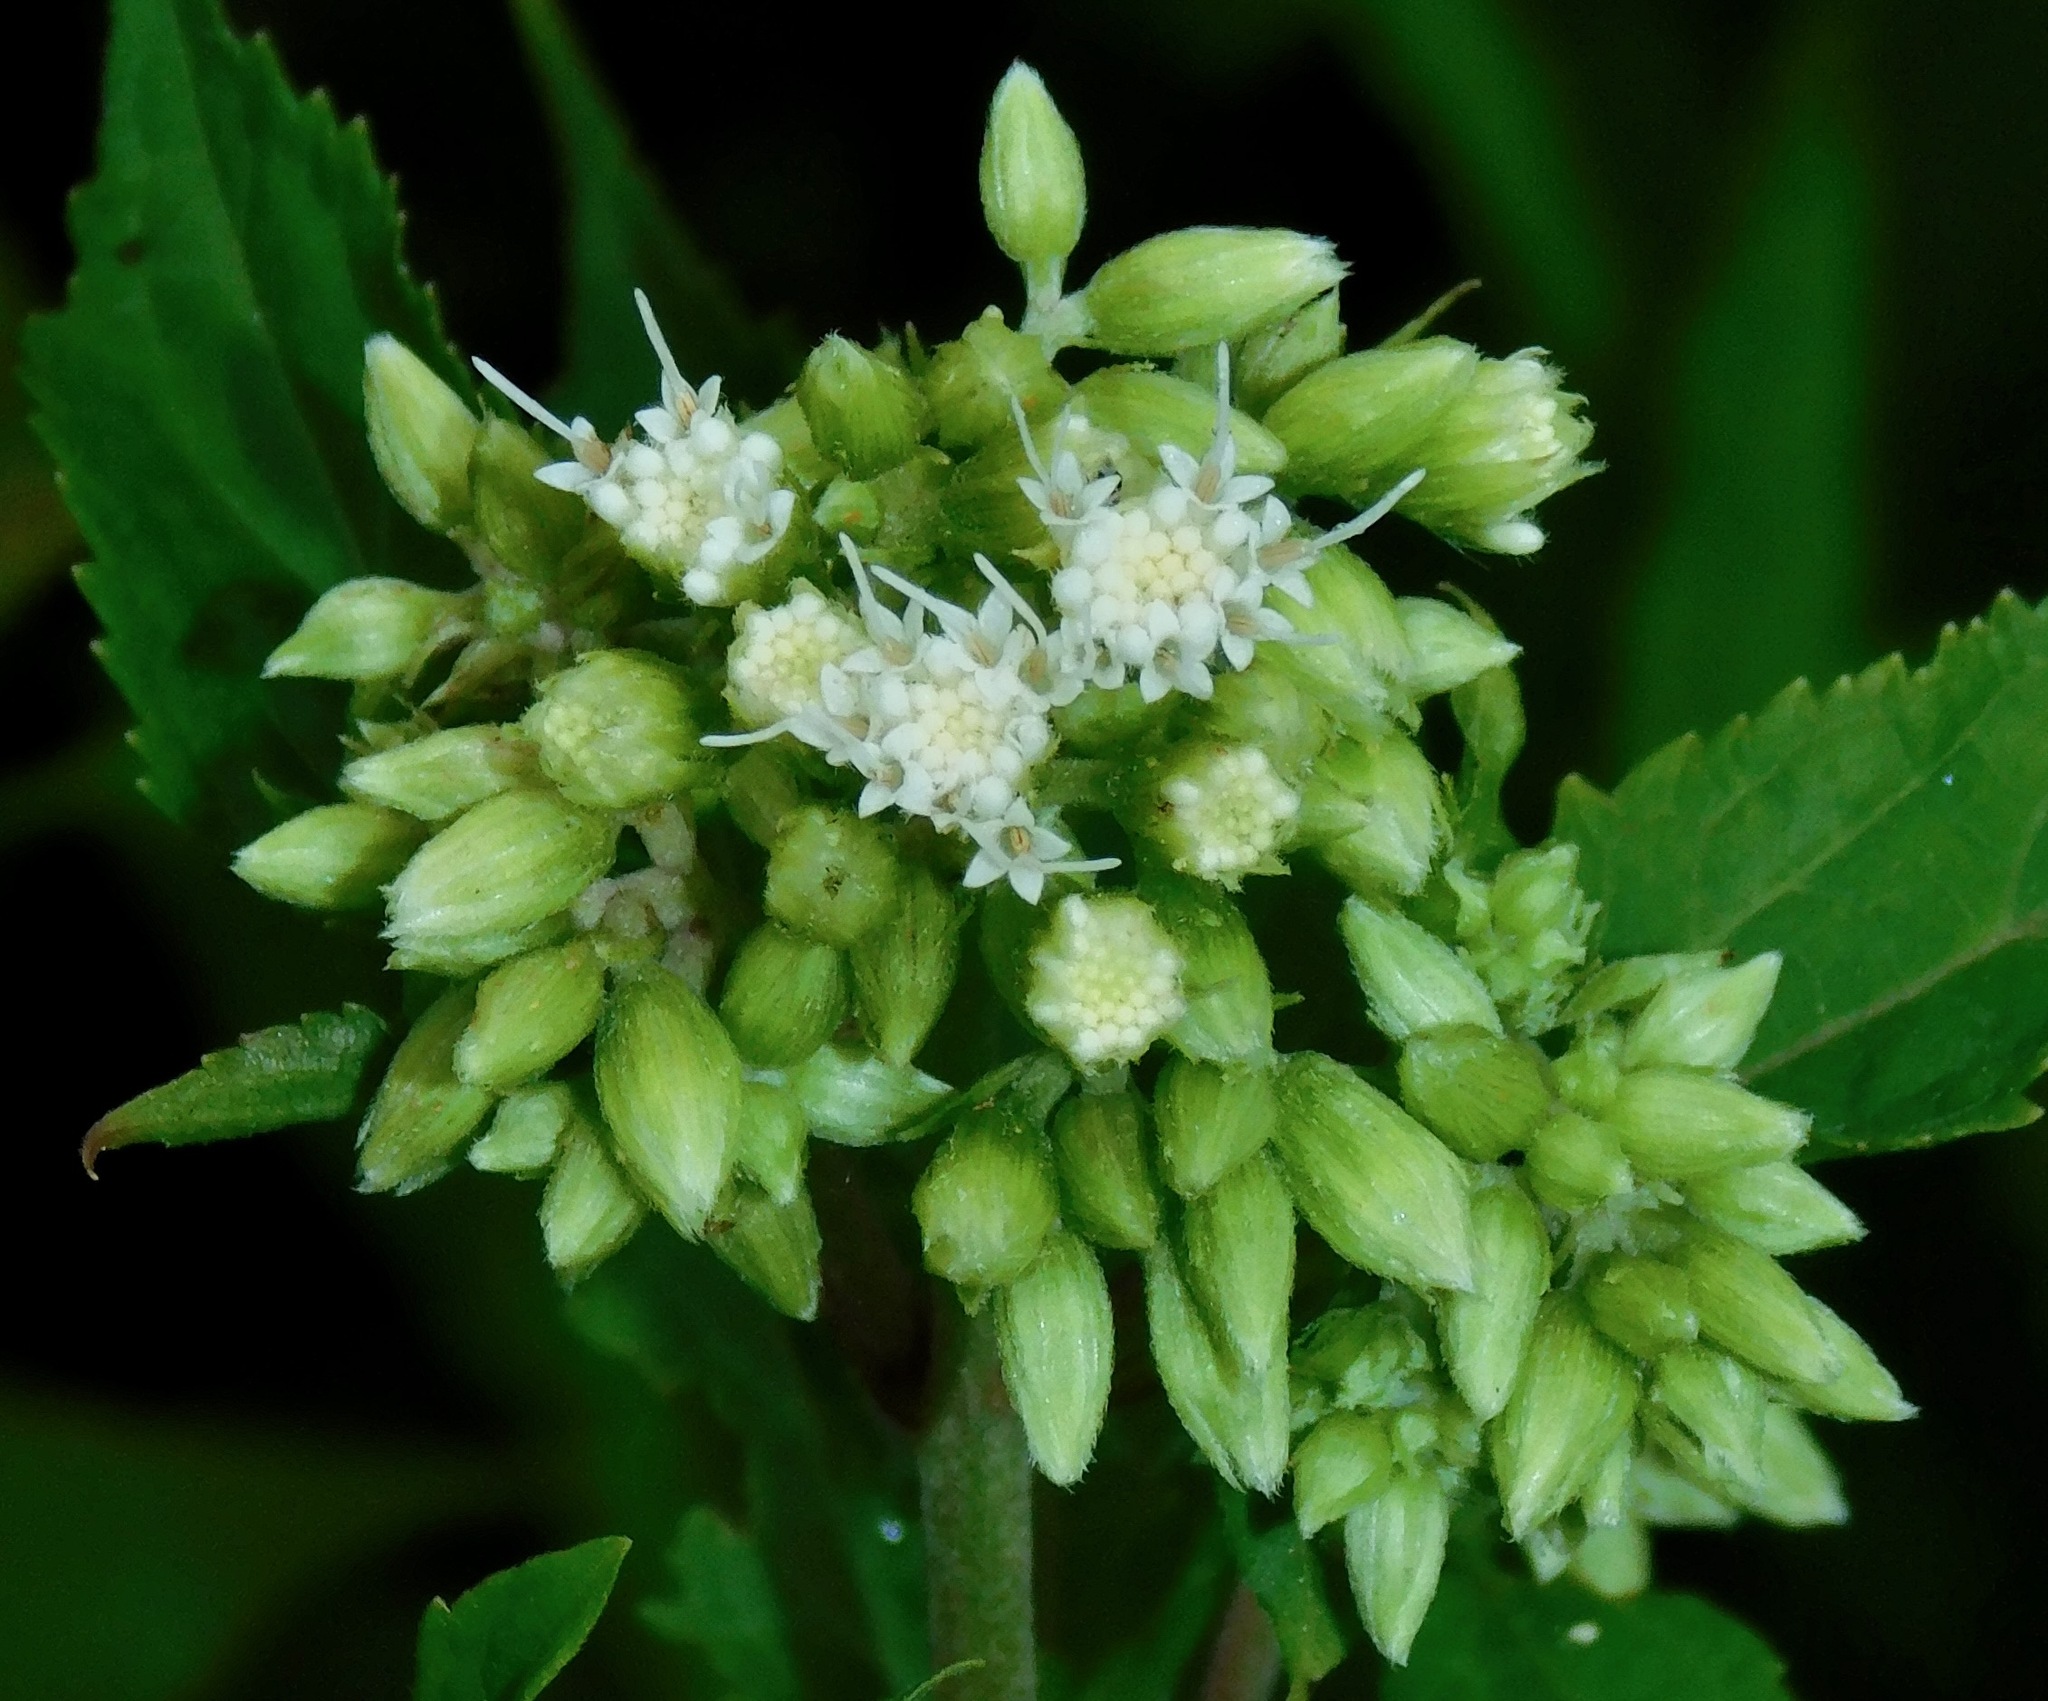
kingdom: Plantae
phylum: Tracheophyta
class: Magnoliopsida
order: Asterales
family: Asteraceae
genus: Ageratina
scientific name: Ageratina roanensis
